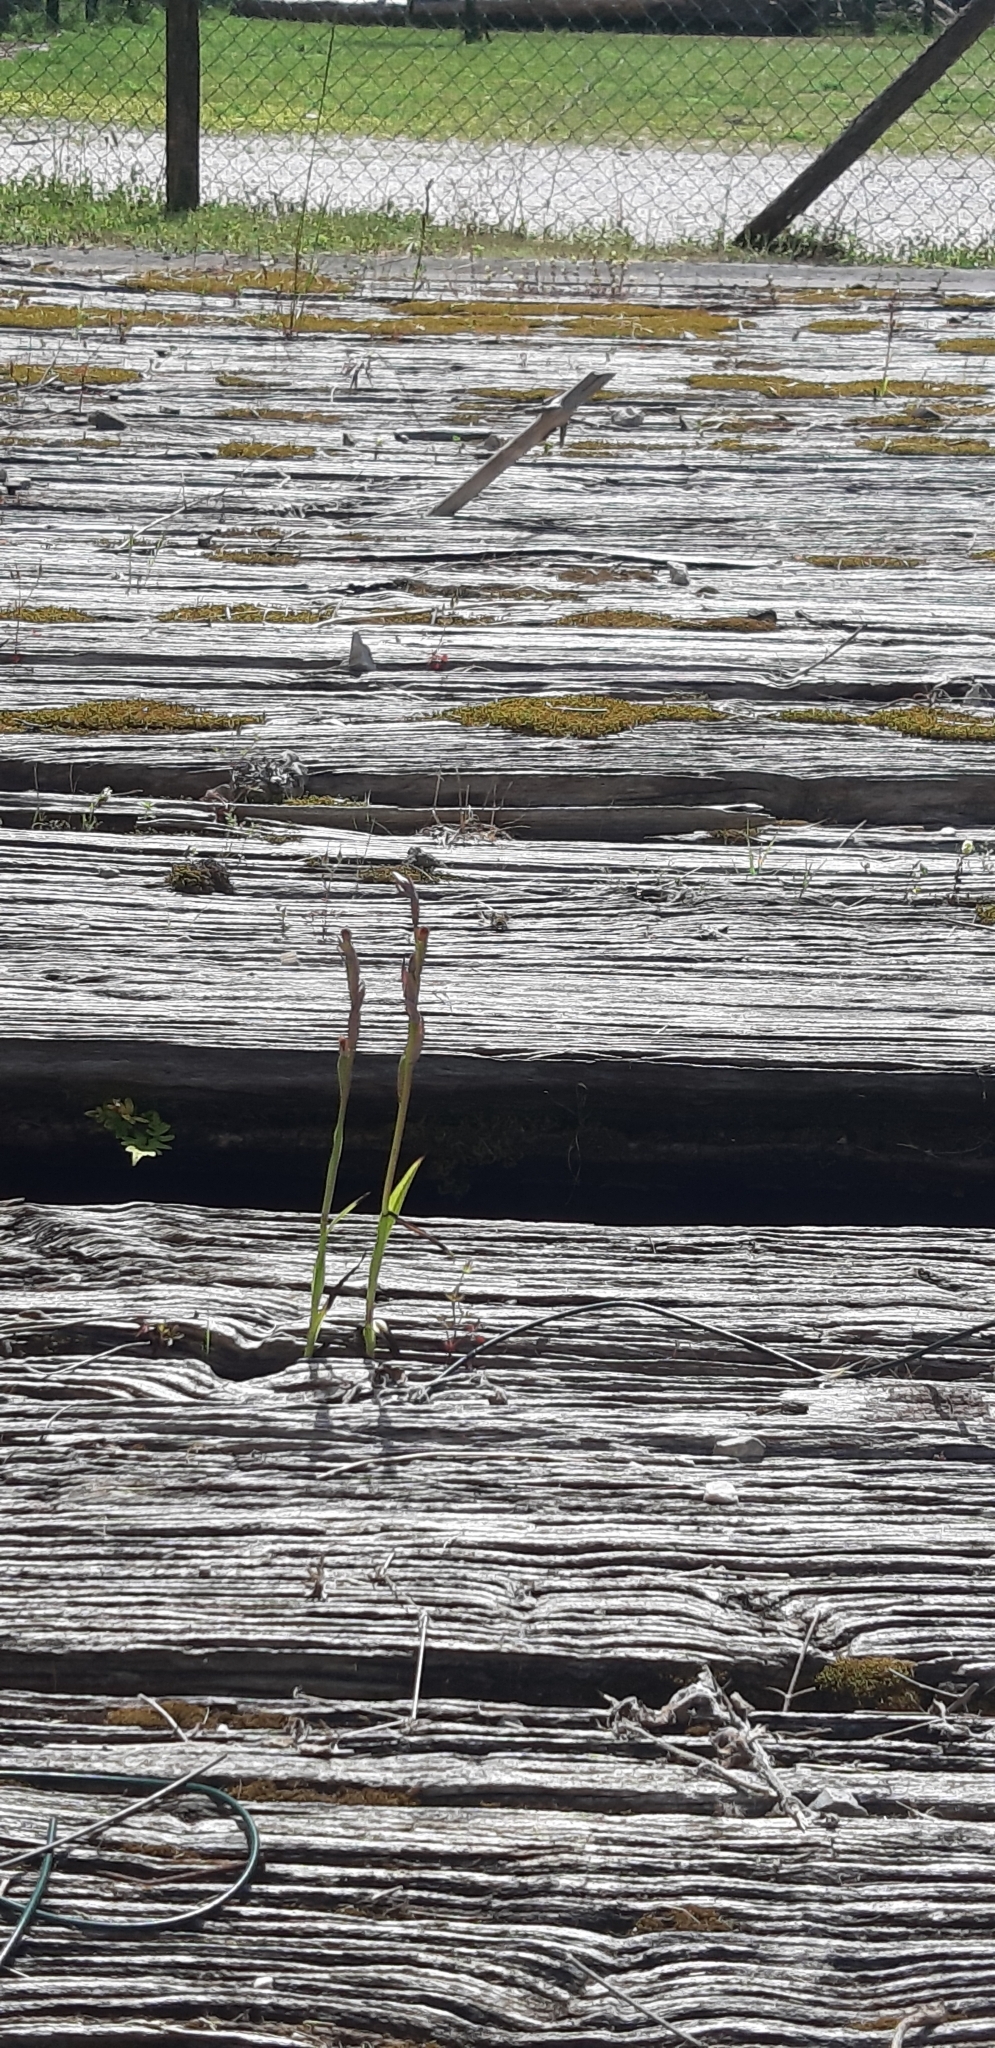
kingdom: Plantae
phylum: Tracheophyta
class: Liliopsida
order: Asparagales
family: Orchidaceae
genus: Serapias
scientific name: Serapias parviflora
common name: Small-flowered tongue-orchid
